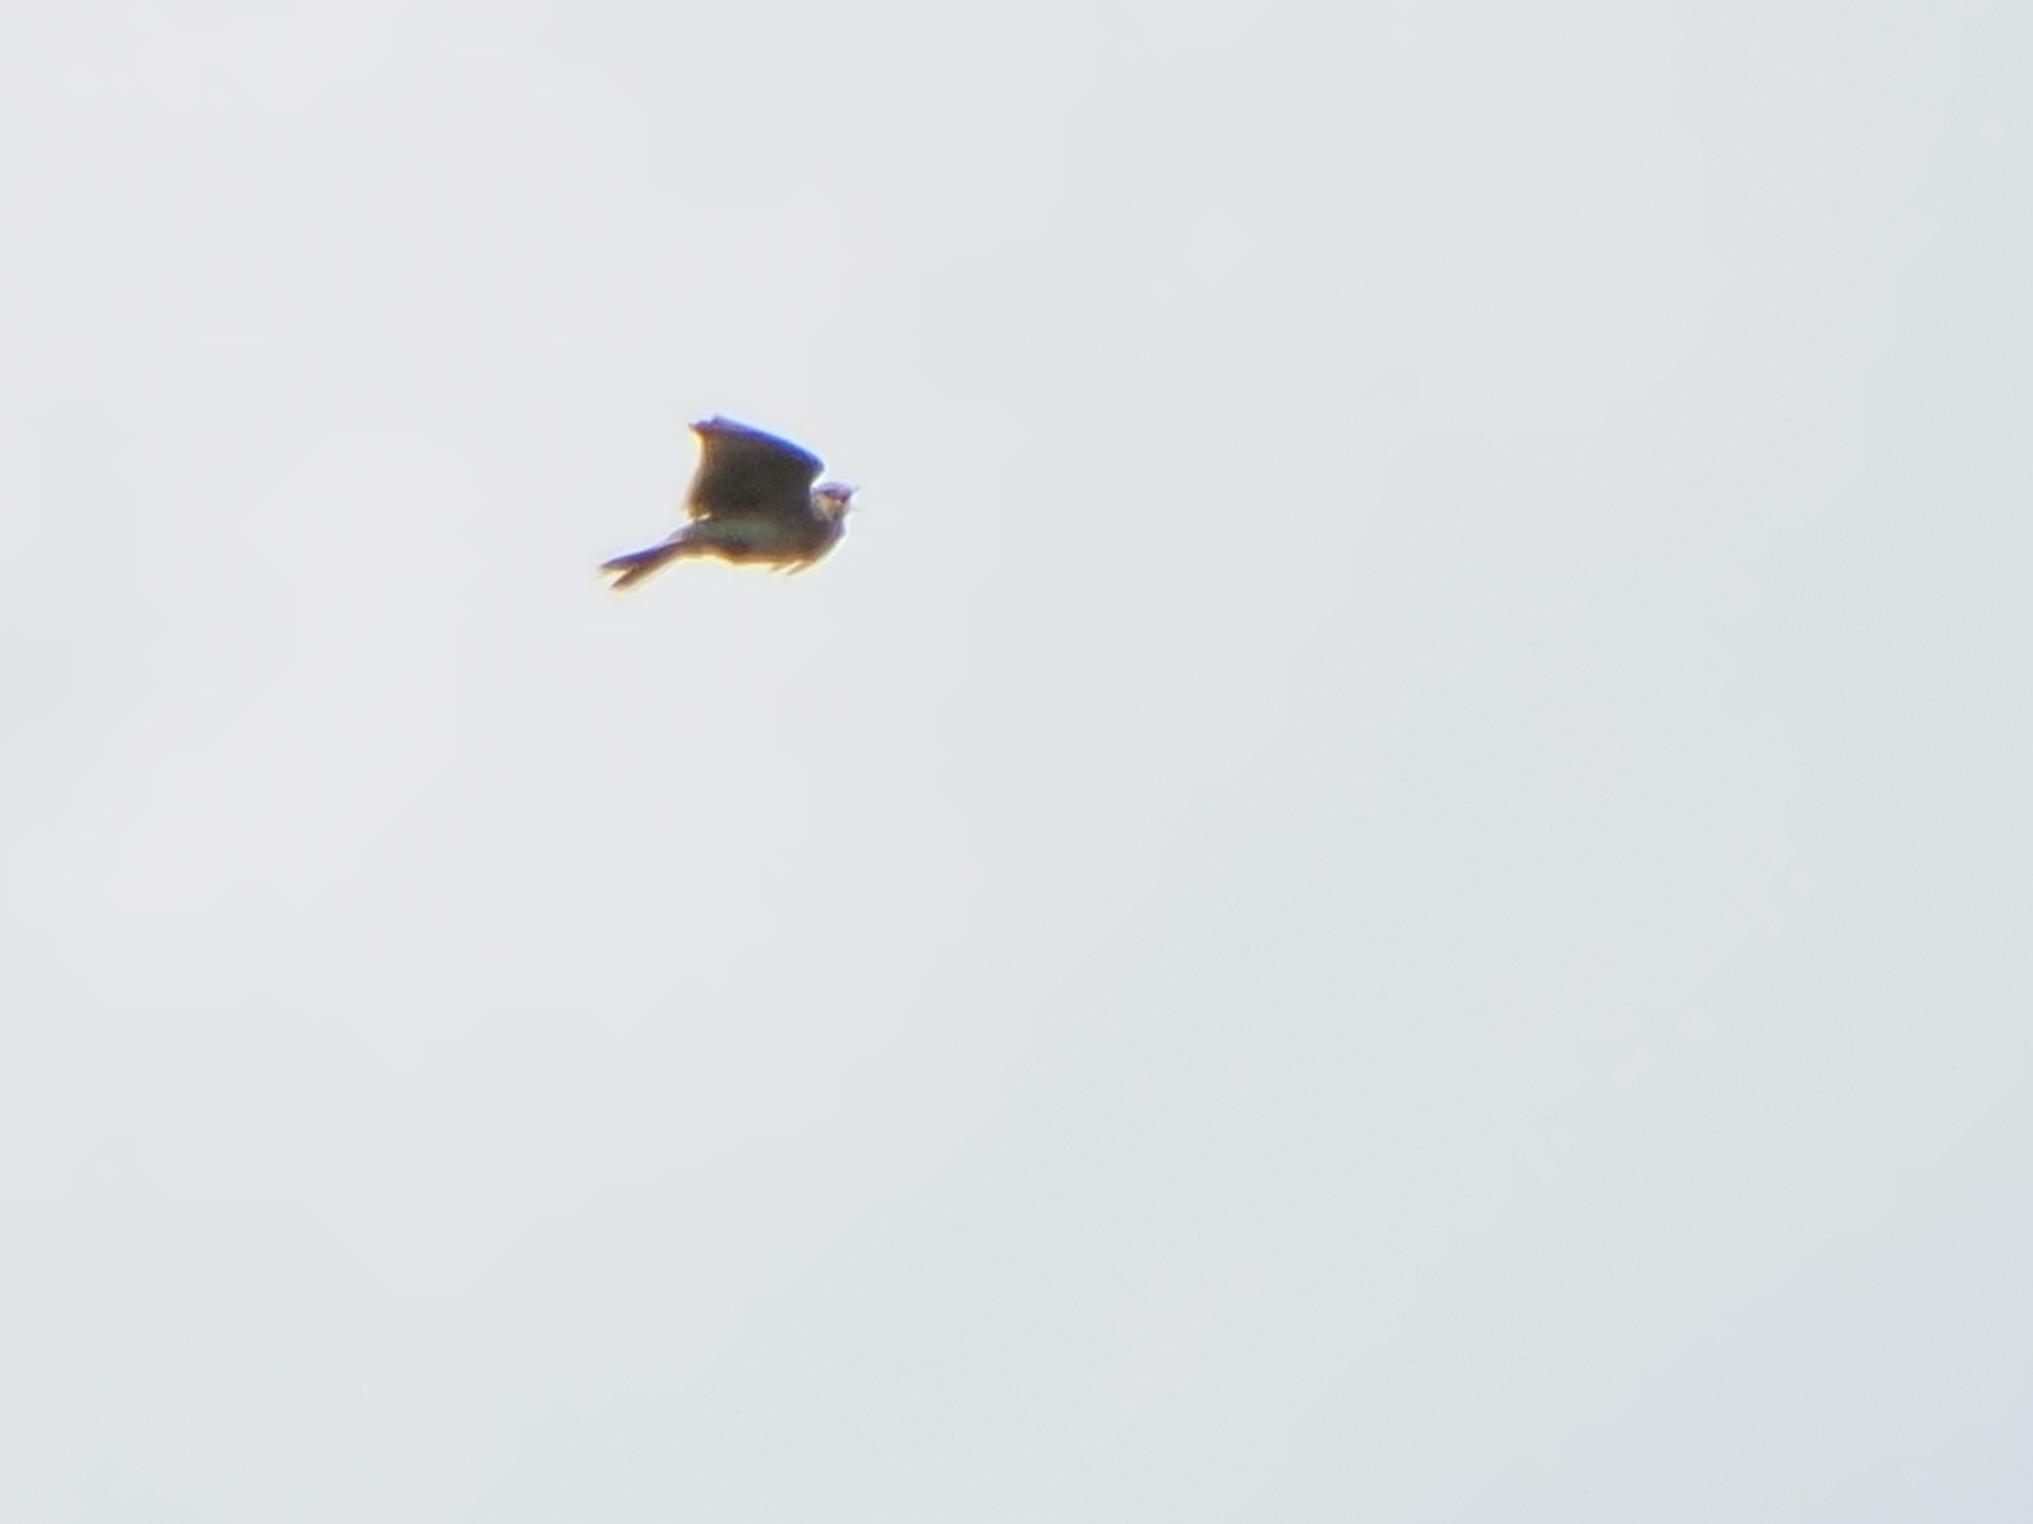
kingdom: Animalia
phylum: Chordata
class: Aves
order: Passeriformes
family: Alaudidae
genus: Alauda
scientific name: Alauda arvensis
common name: Eurasian skylark
